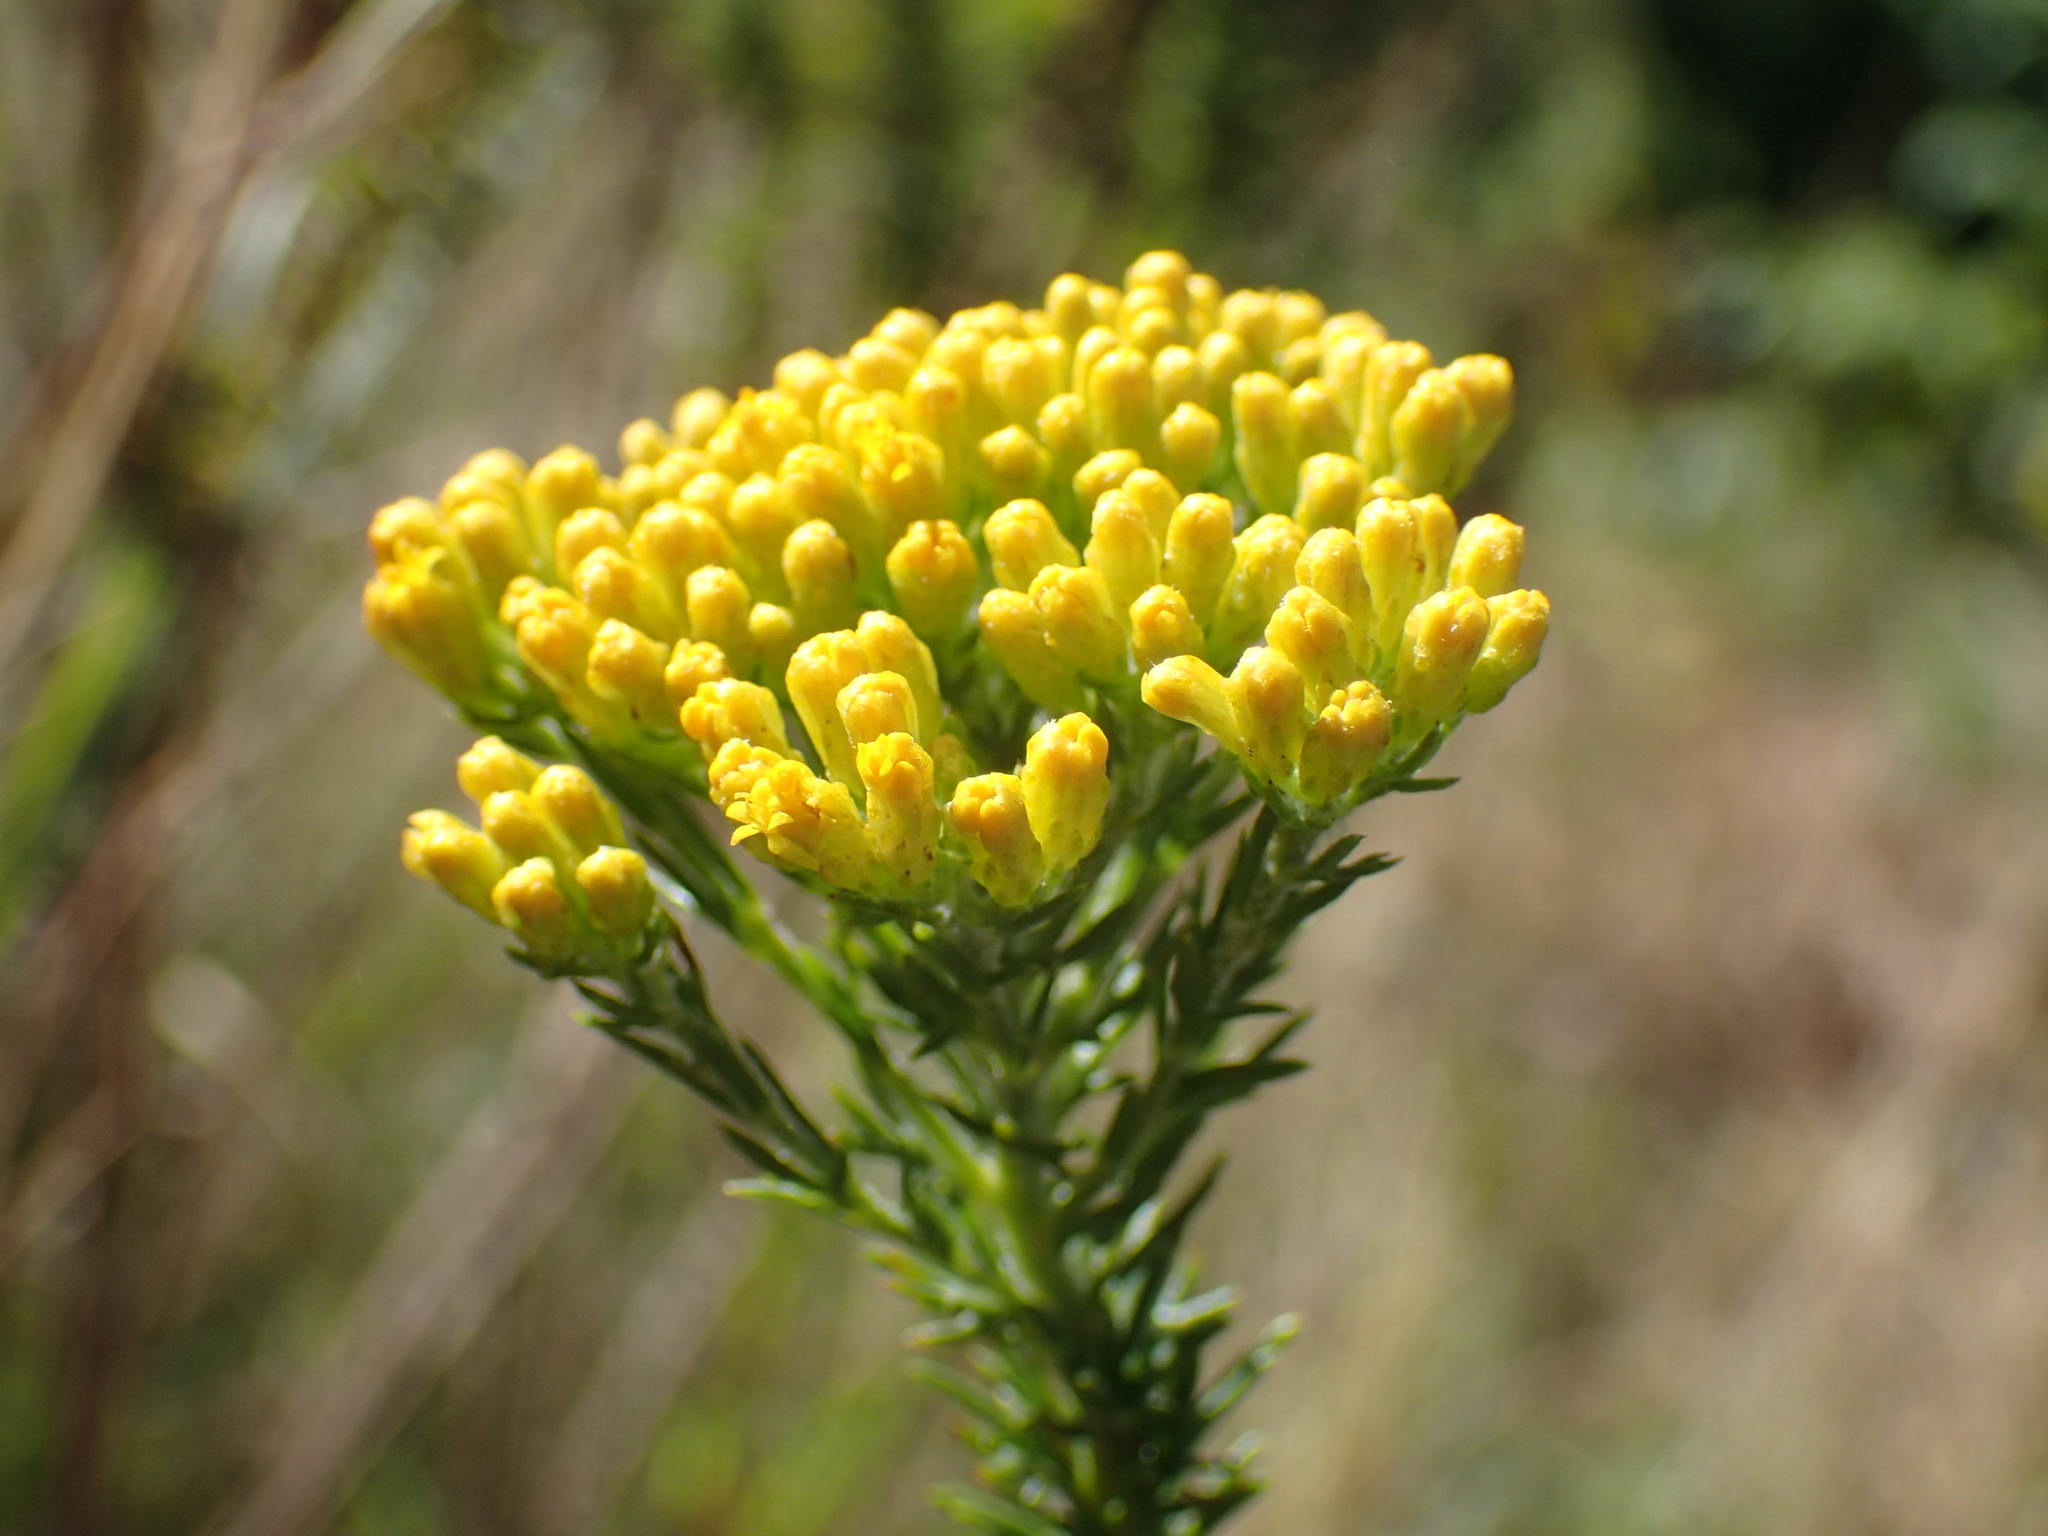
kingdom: Plantae
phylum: Tracheophyta
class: Magnoliopsida
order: Asterales
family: Asteraceae
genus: Phymaspermum
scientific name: Phymaspermum acerosum
